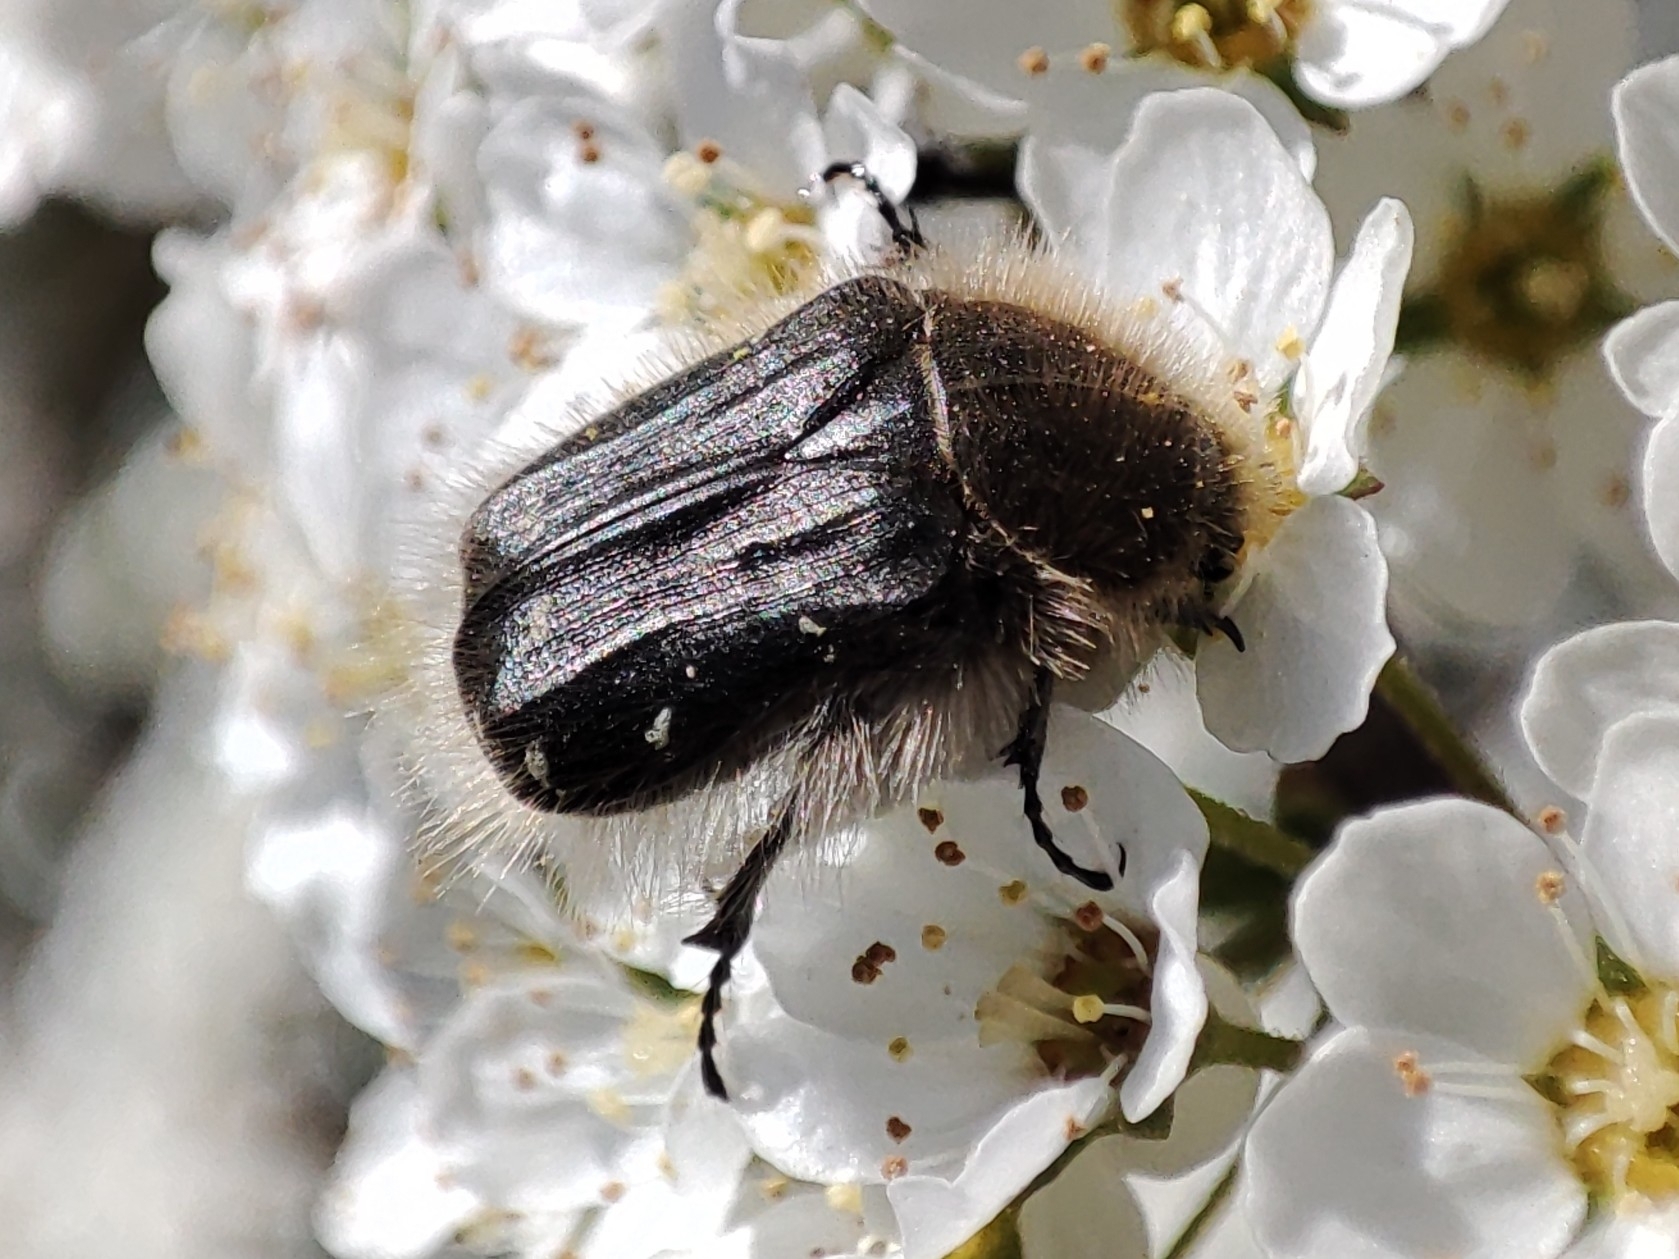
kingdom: Animalia
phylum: Arthropoda
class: Insecta
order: Coleoptera
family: Scarabaeidae
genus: Tropinota
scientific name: Tropinota hirta
